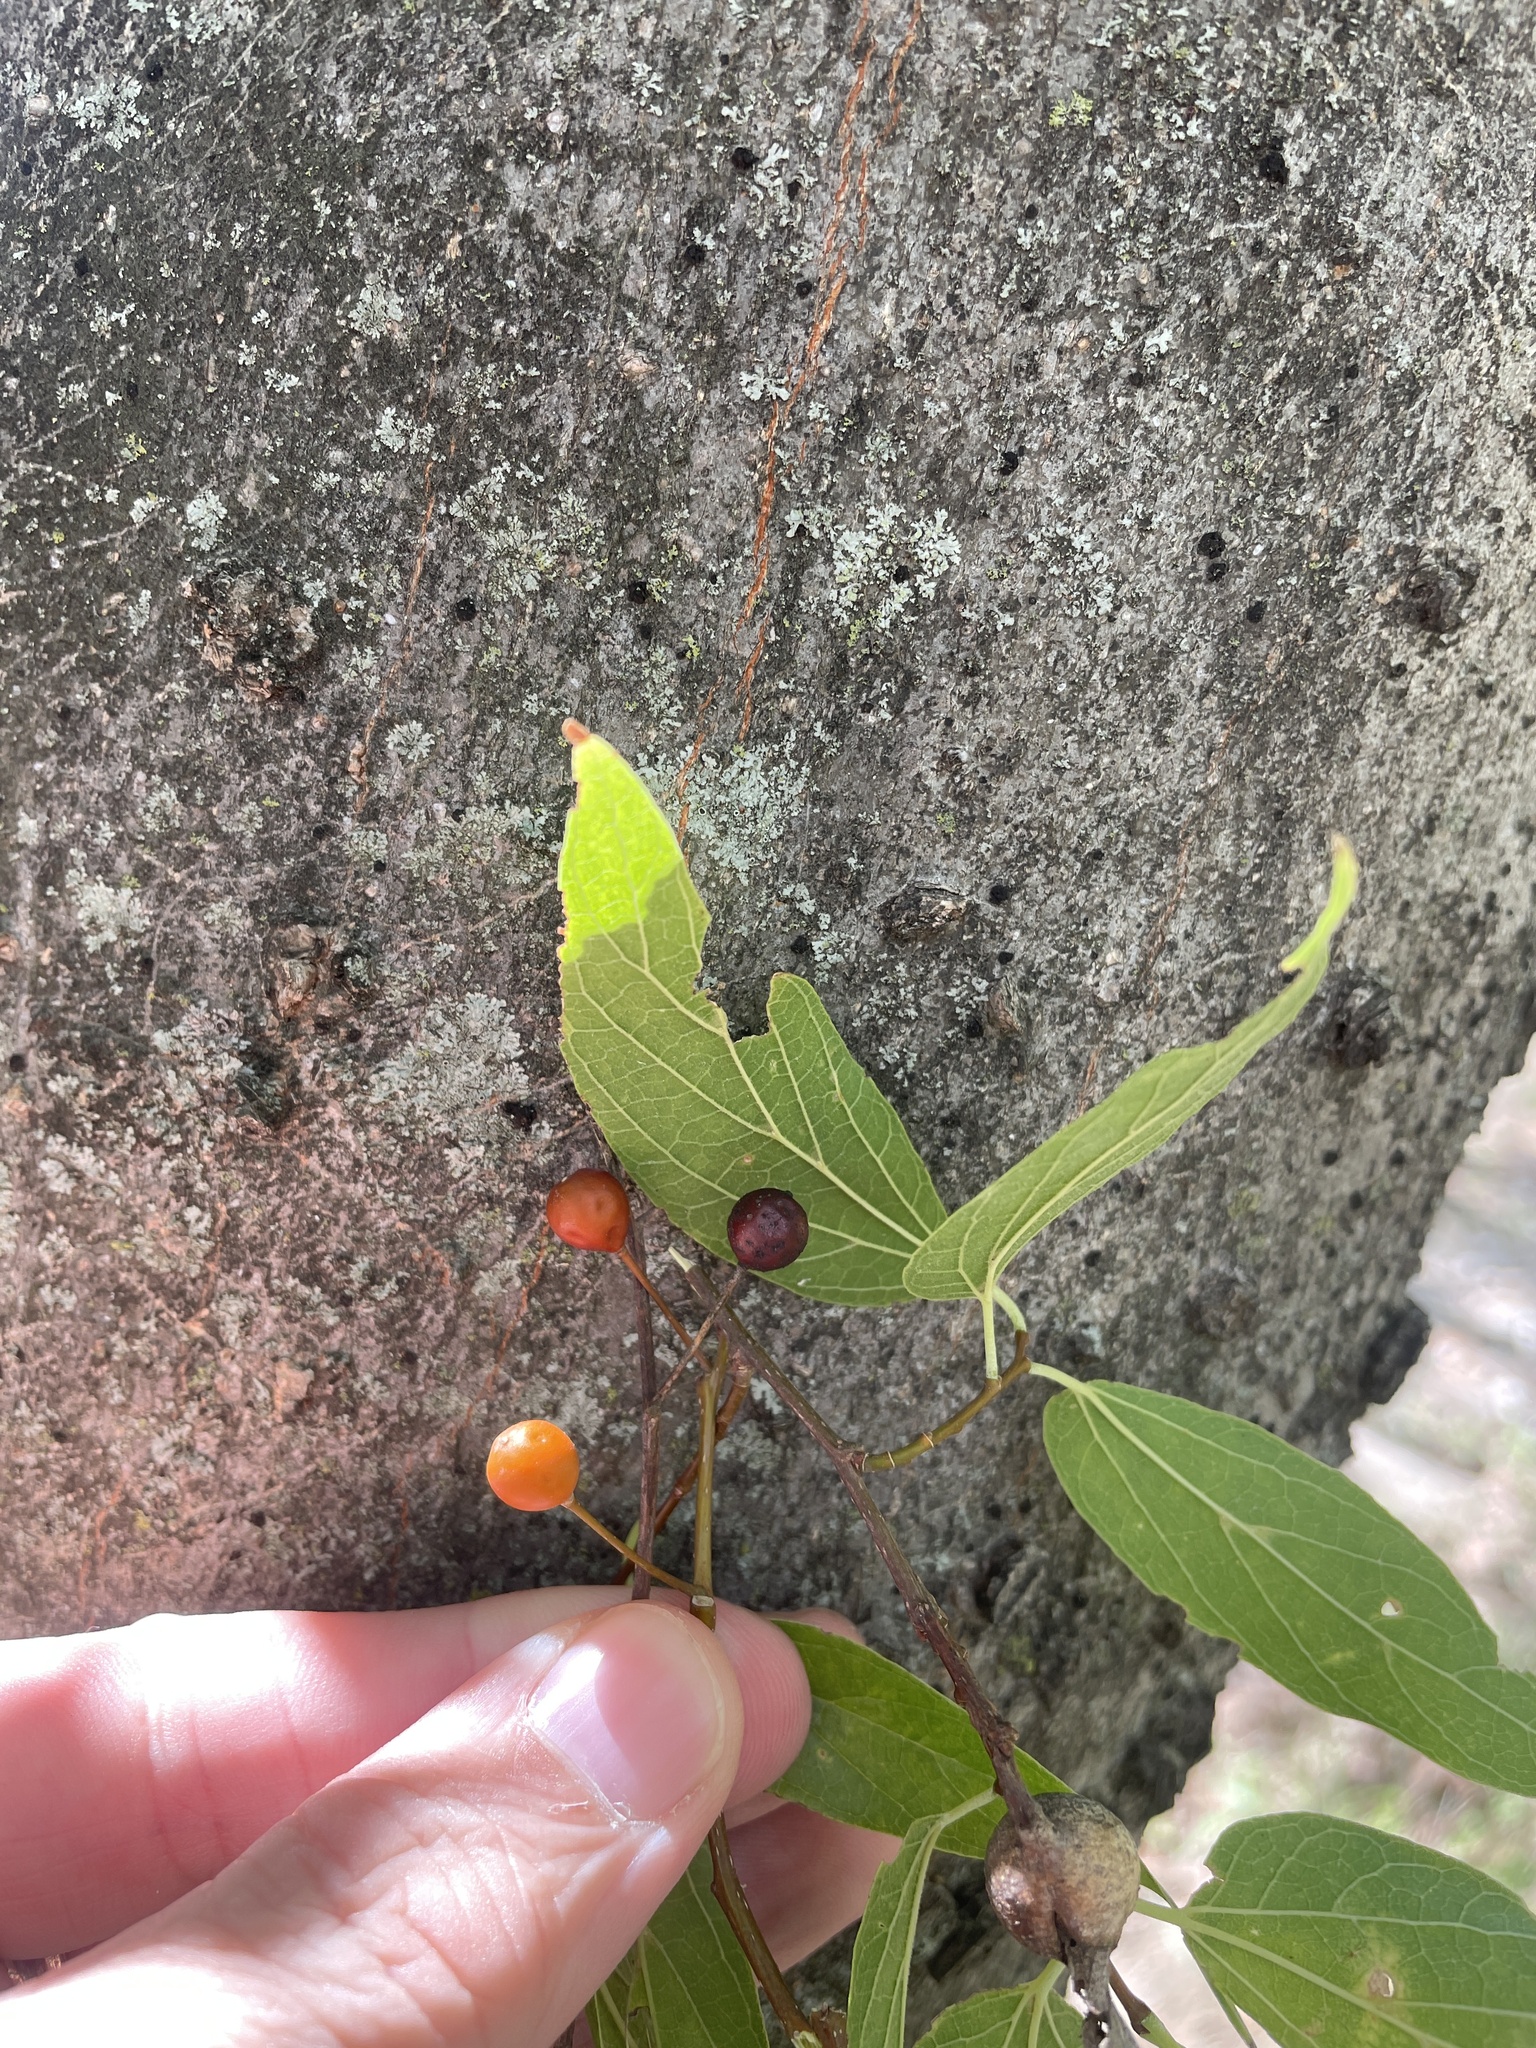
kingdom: Plantae
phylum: Tracheophyta
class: Magnoliopsida
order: Rosales
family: Cannabaceae
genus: Celtis
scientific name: Celtis laevigata
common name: Sugarberry
